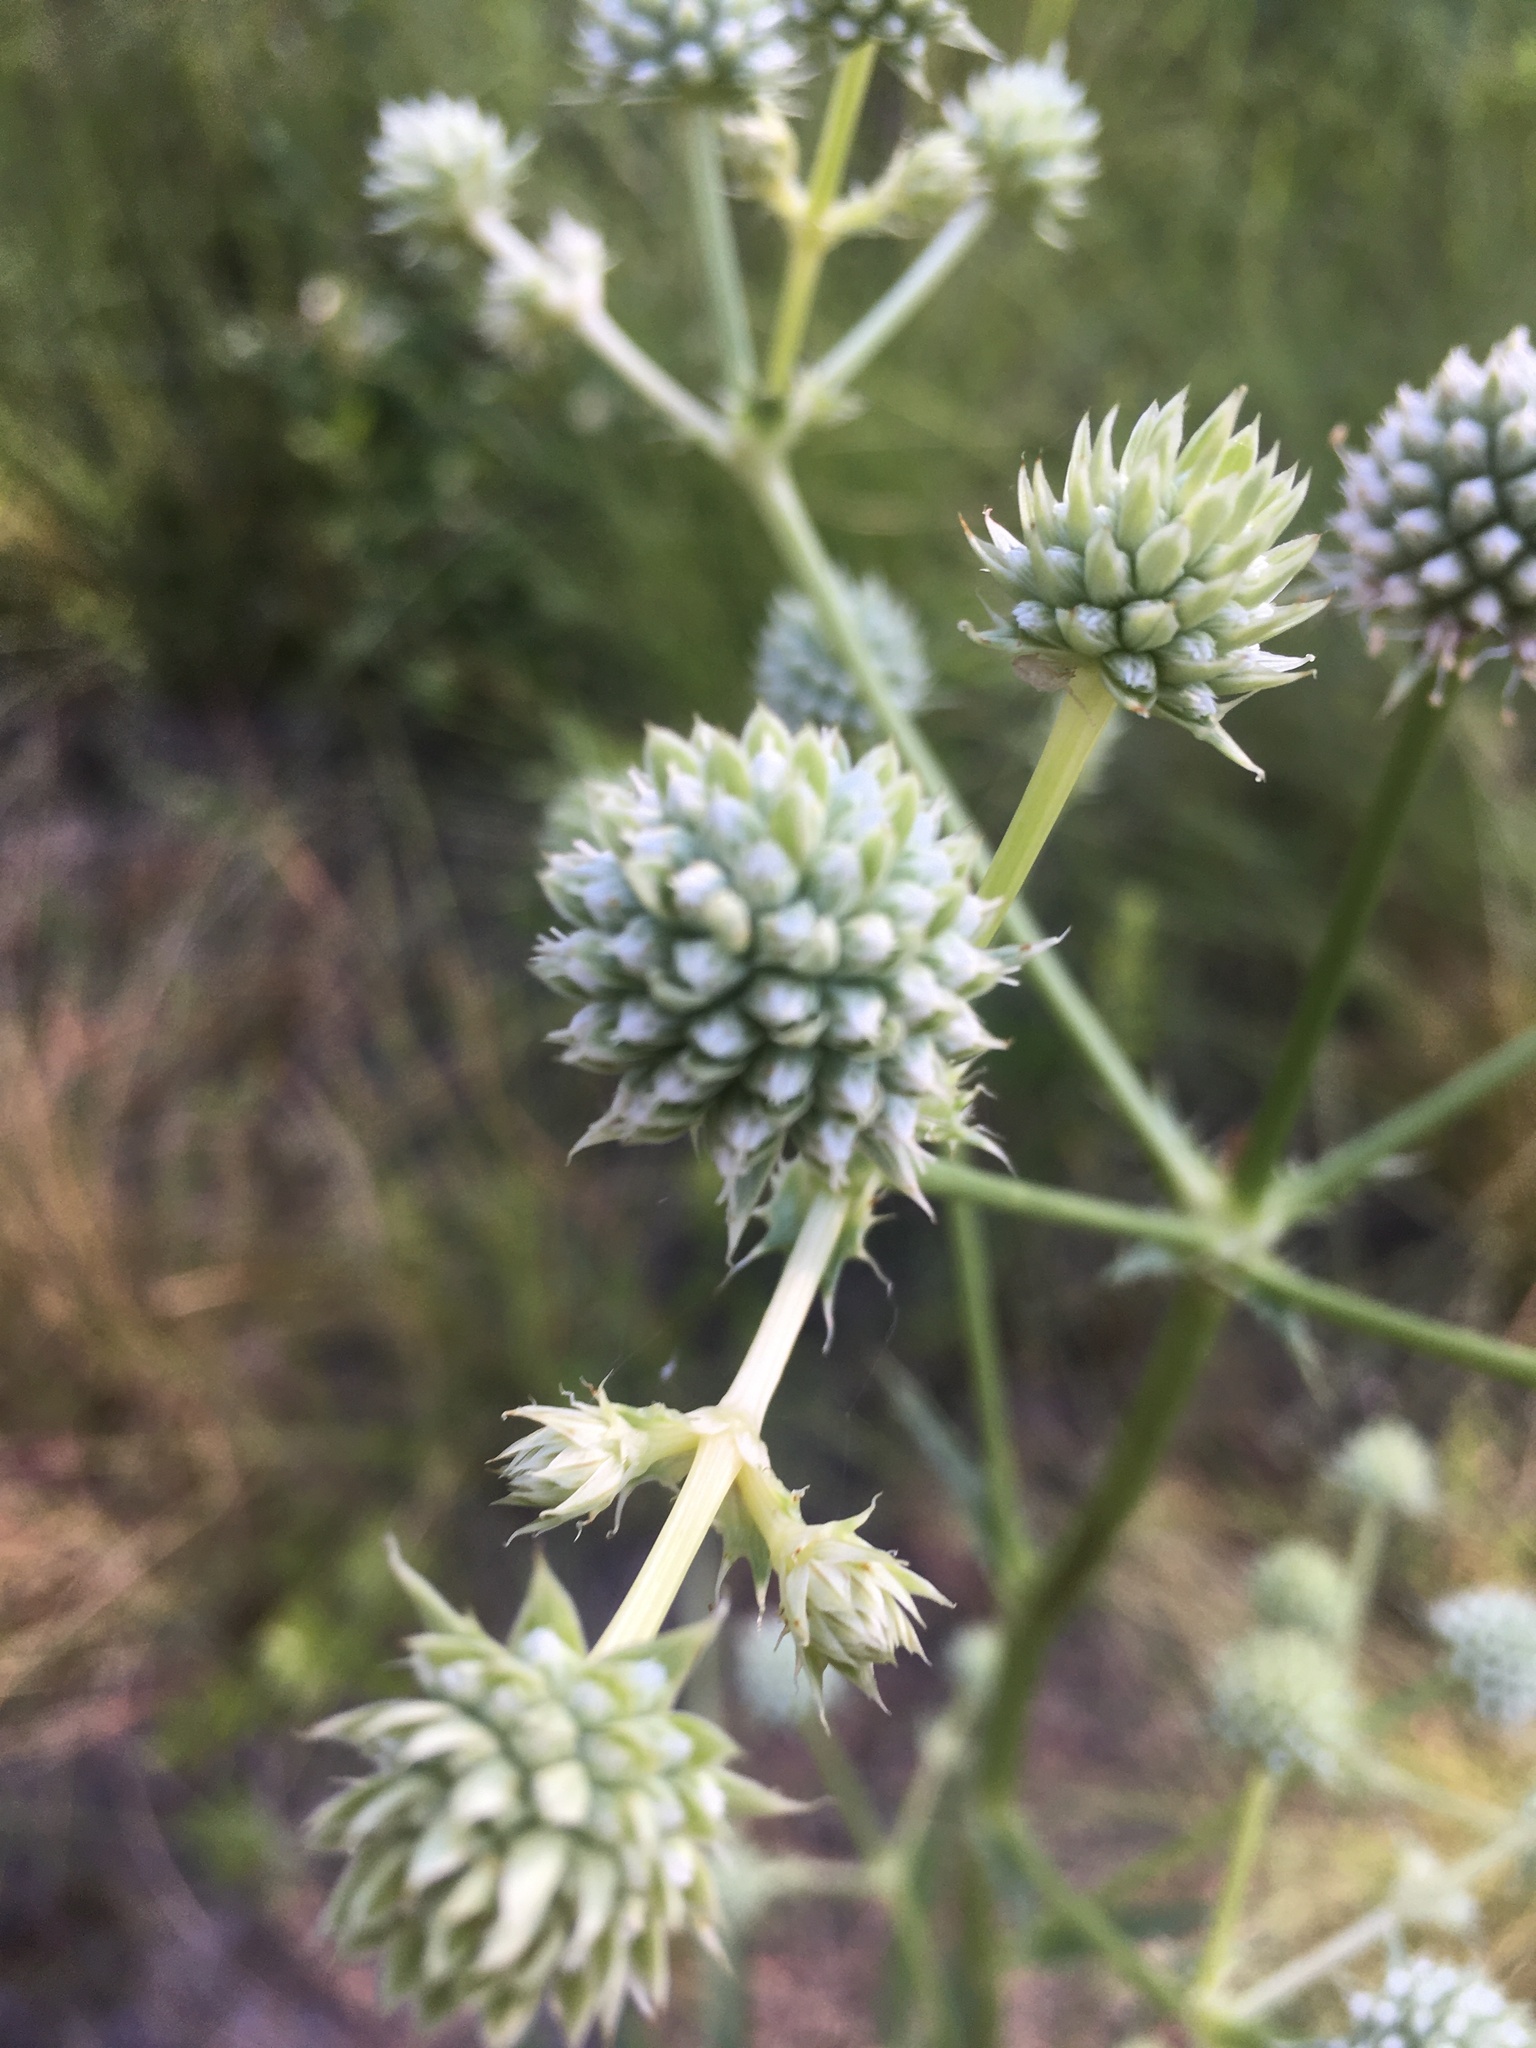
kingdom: Plantae
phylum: Tracheophyta
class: Magnoliopsida
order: Apiales
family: Apiaceae
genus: Eryngium
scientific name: Eryngium yuccifolium
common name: Button eryngo
